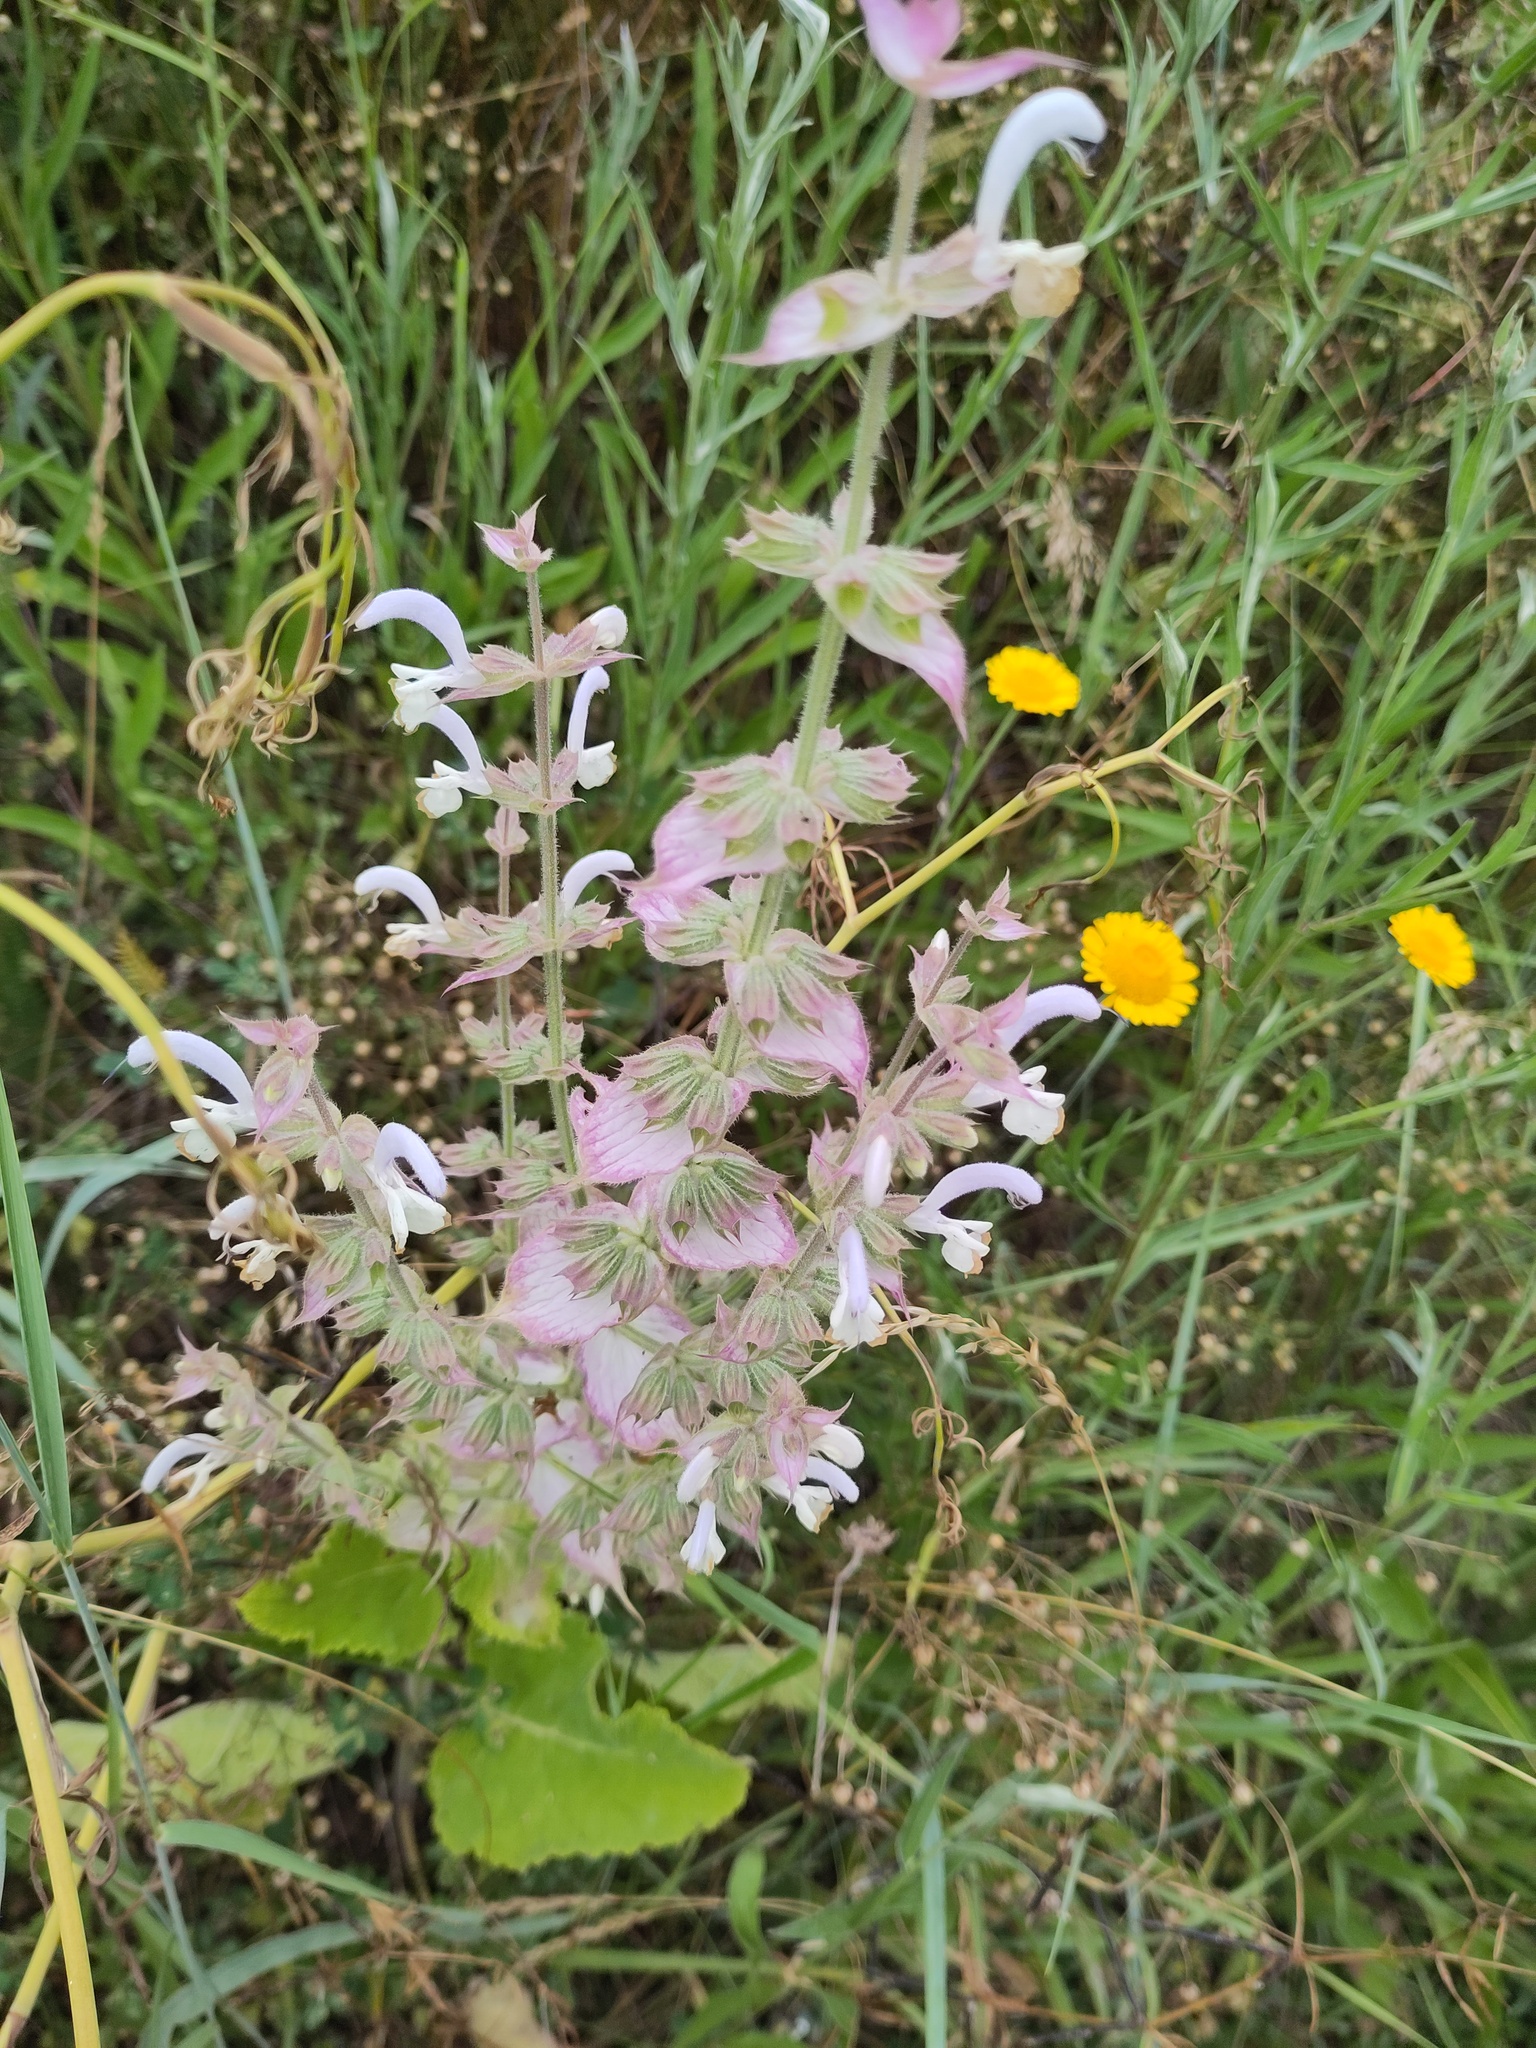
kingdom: Plantae
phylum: Tracheophyta
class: Magnoliopsida
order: Lamiales
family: Lamiaceae
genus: Salvia
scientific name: Salvia sclarea
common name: Clary
